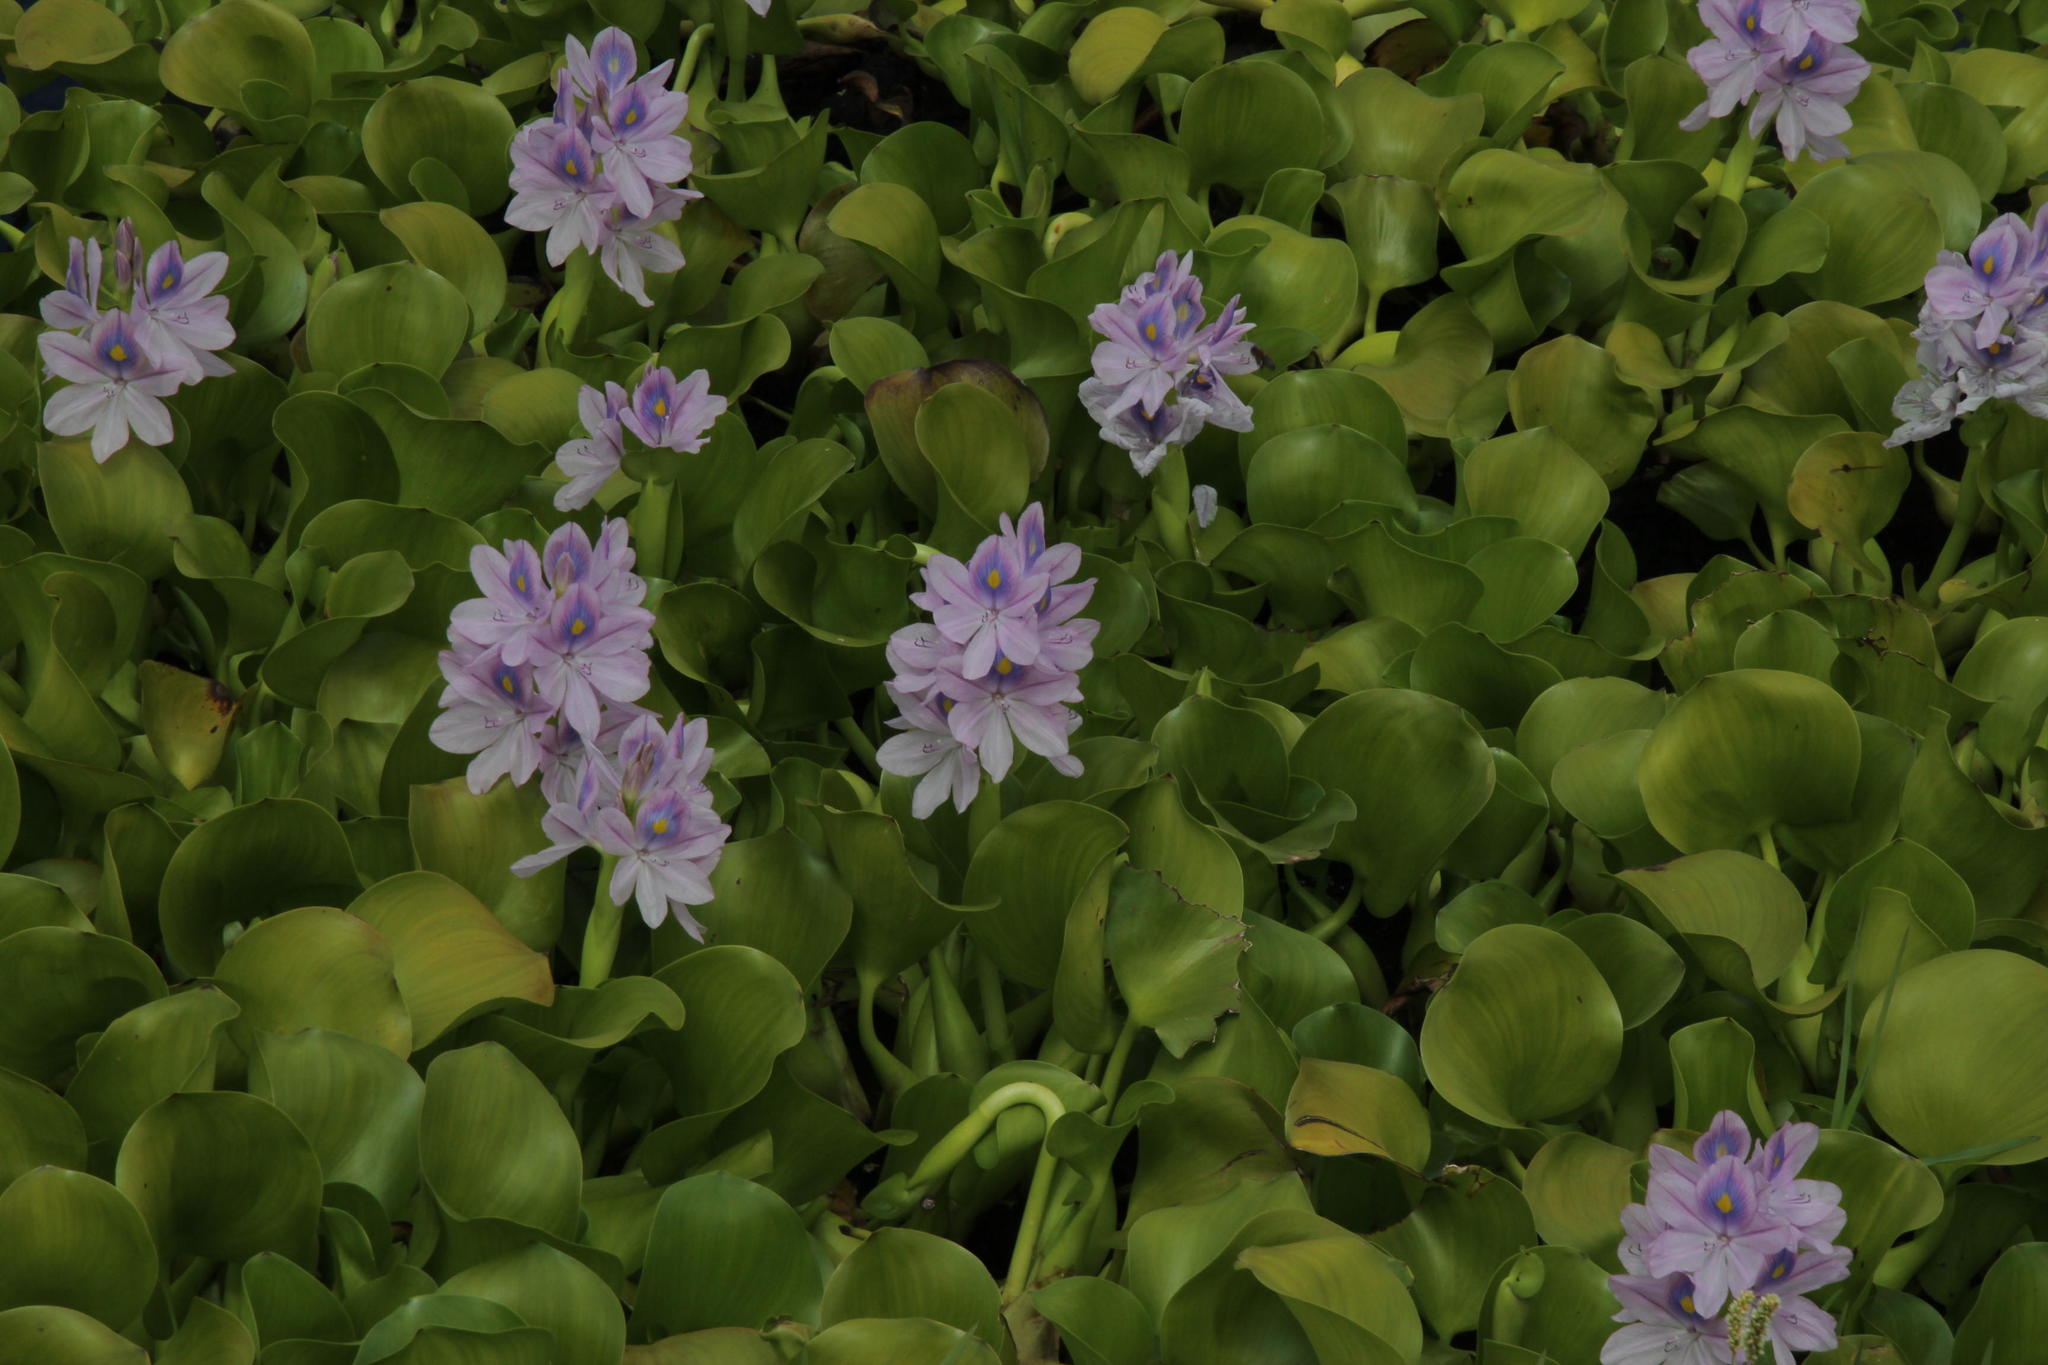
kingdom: Plantae
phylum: Tracheophyta
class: Liliopsida
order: Commelinales
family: Pontederiaceae
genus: Pontederia
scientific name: Pontederia crassipes
